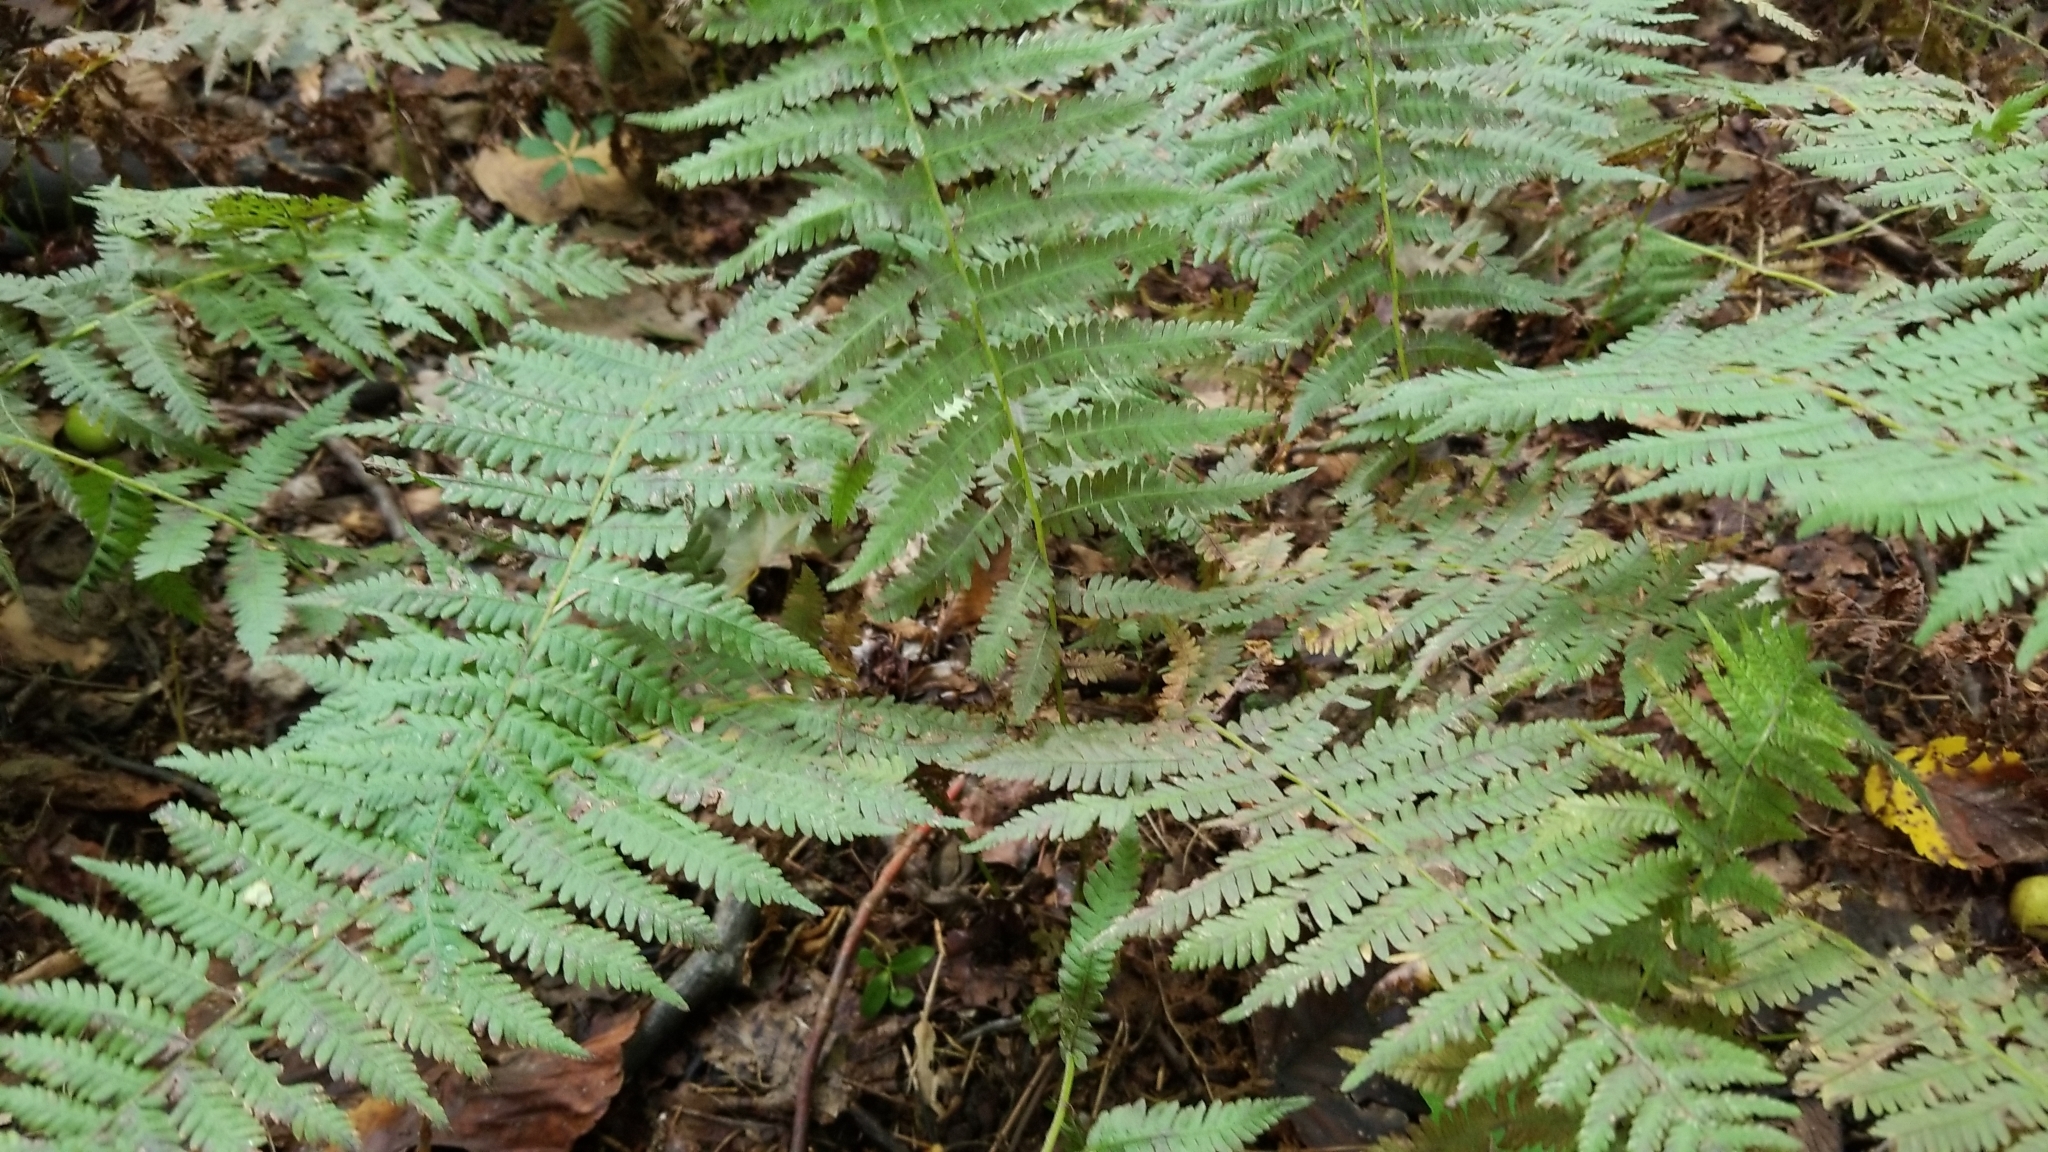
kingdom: Plantae
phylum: Tracheophyta
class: Polypodiopsida
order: Polypodiales
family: Thelypteridaceae
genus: Amauropelta
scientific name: Amauropelta noveboracensis
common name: New york fern
